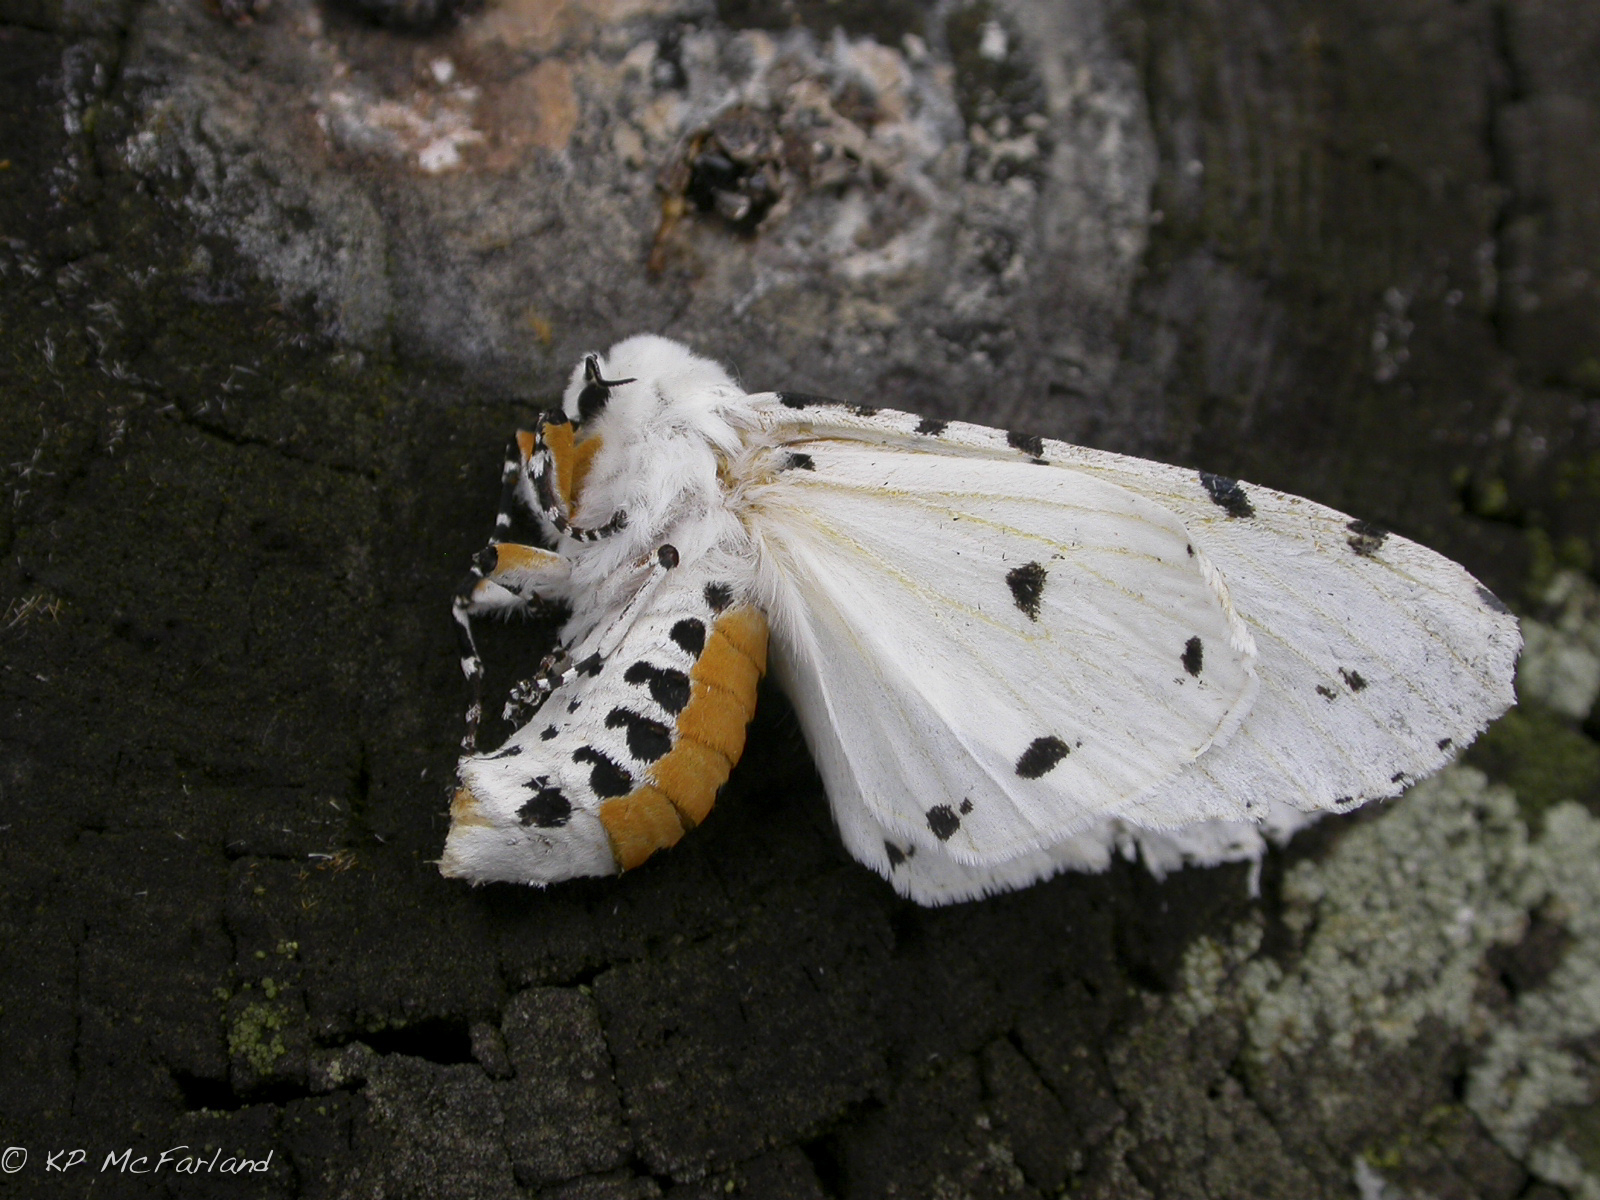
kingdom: Animalia
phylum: Arthropoda
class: Insecta
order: Lepidoptera
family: Erebidae
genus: Estigmene
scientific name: Estigmene acrea
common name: Salt marsh moth
